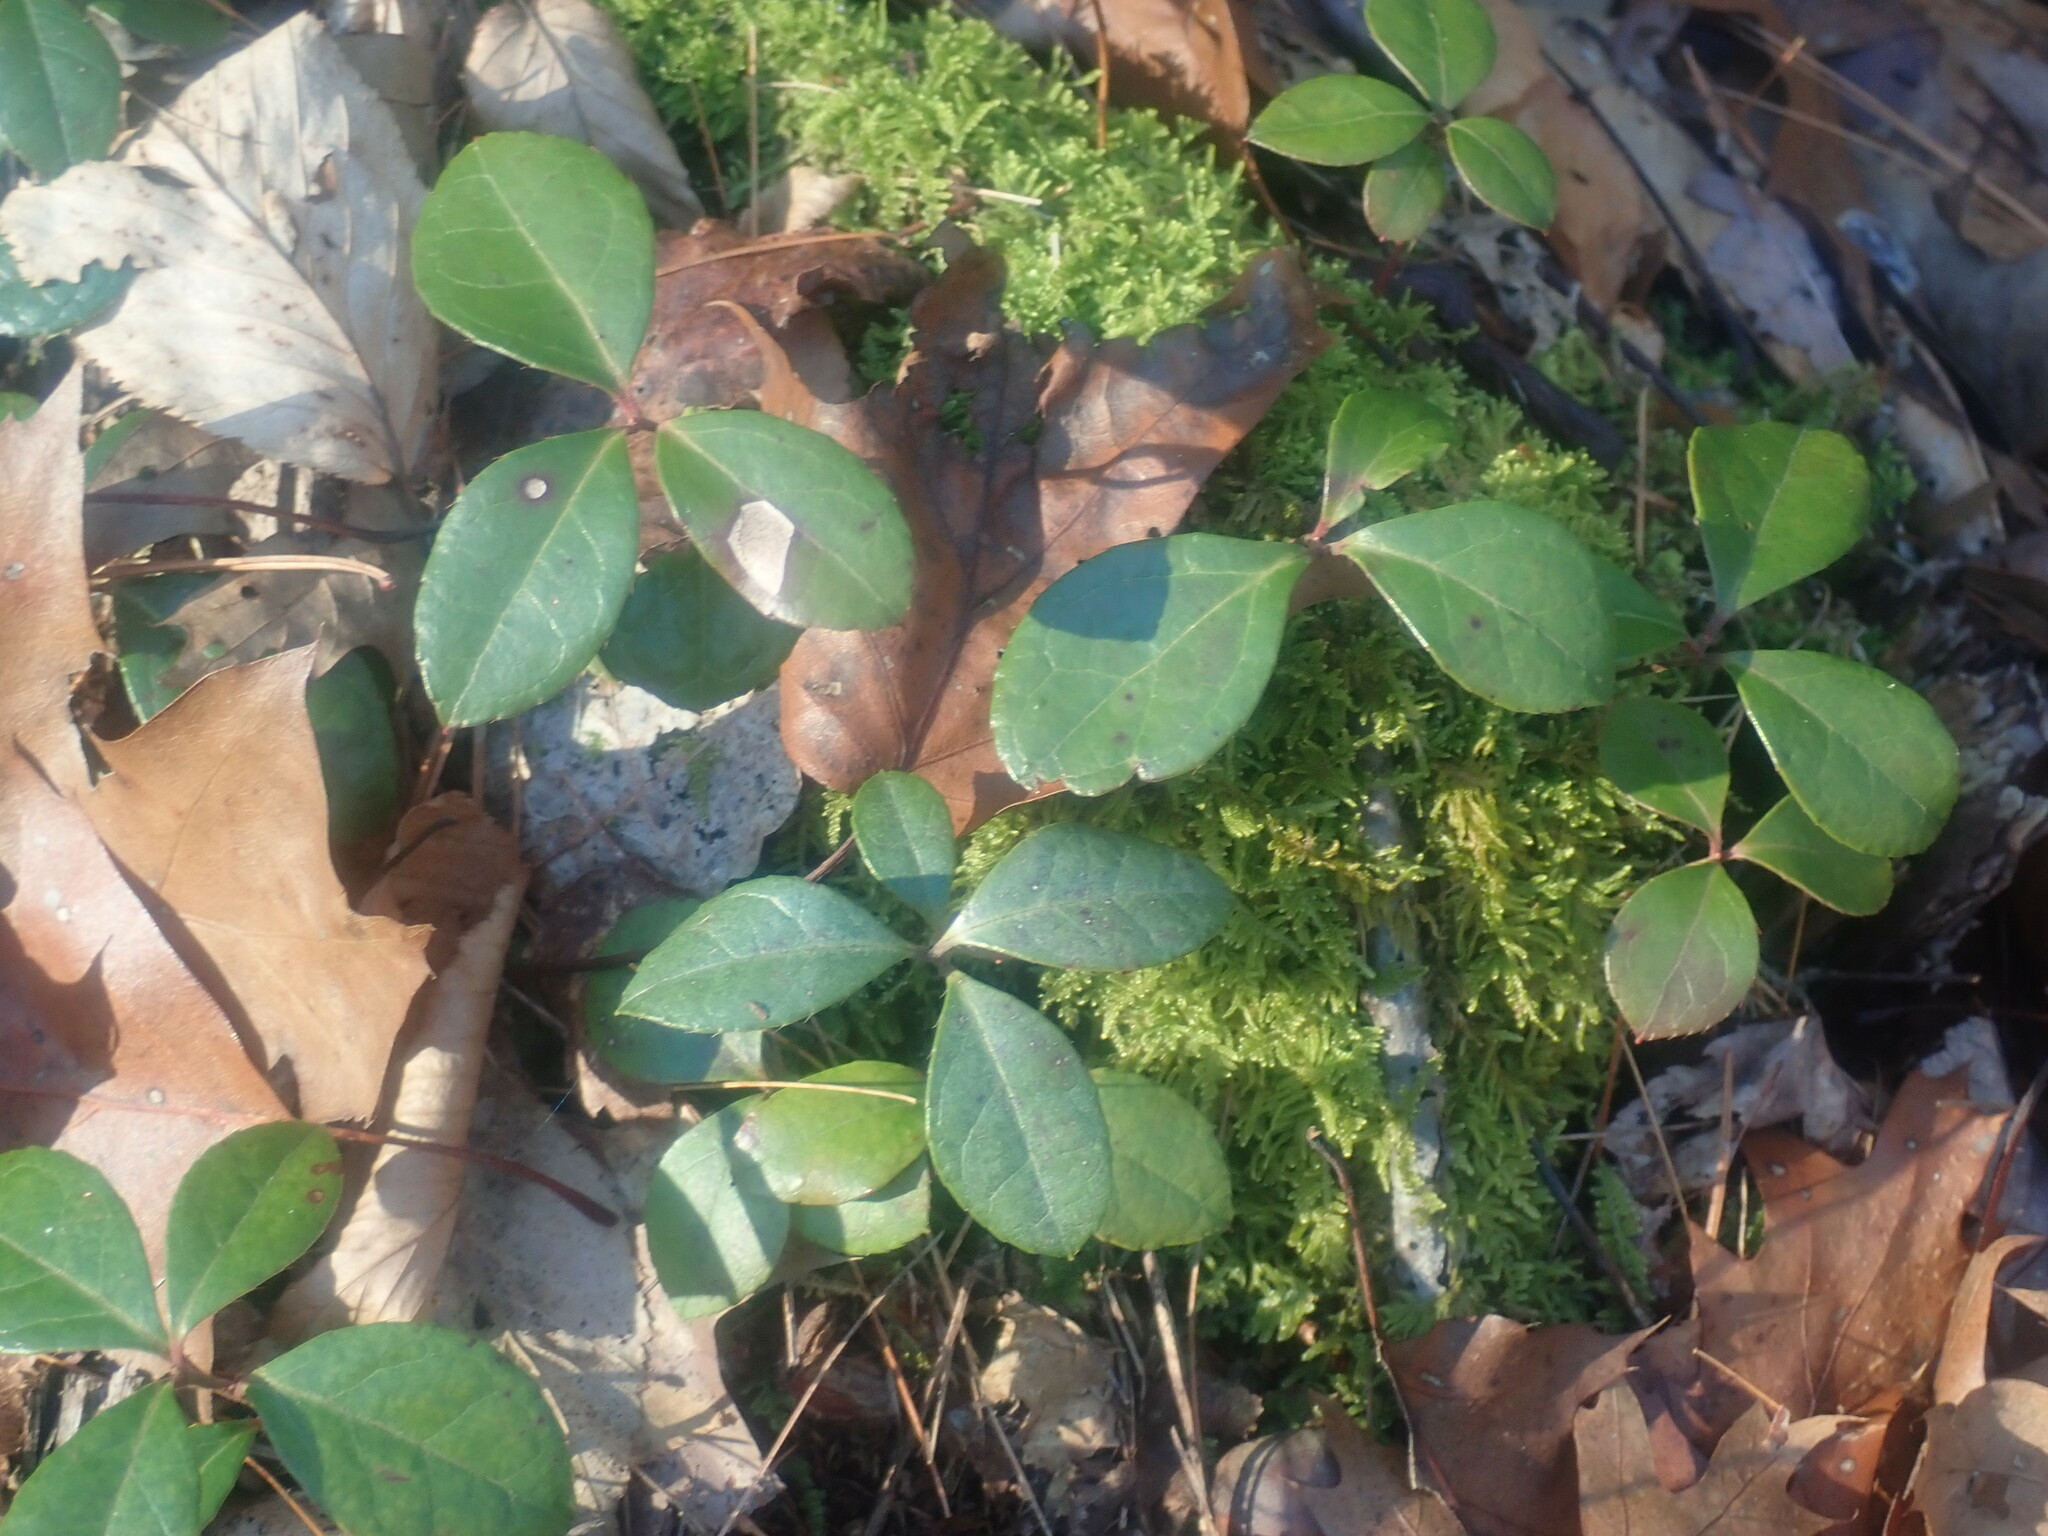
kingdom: Plantae
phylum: Tracheophyta
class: Magnoliopsida
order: Ericales
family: Ericaceae
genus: Gaultheria
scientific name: Gaultheria procumbens
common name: Checkerberry
